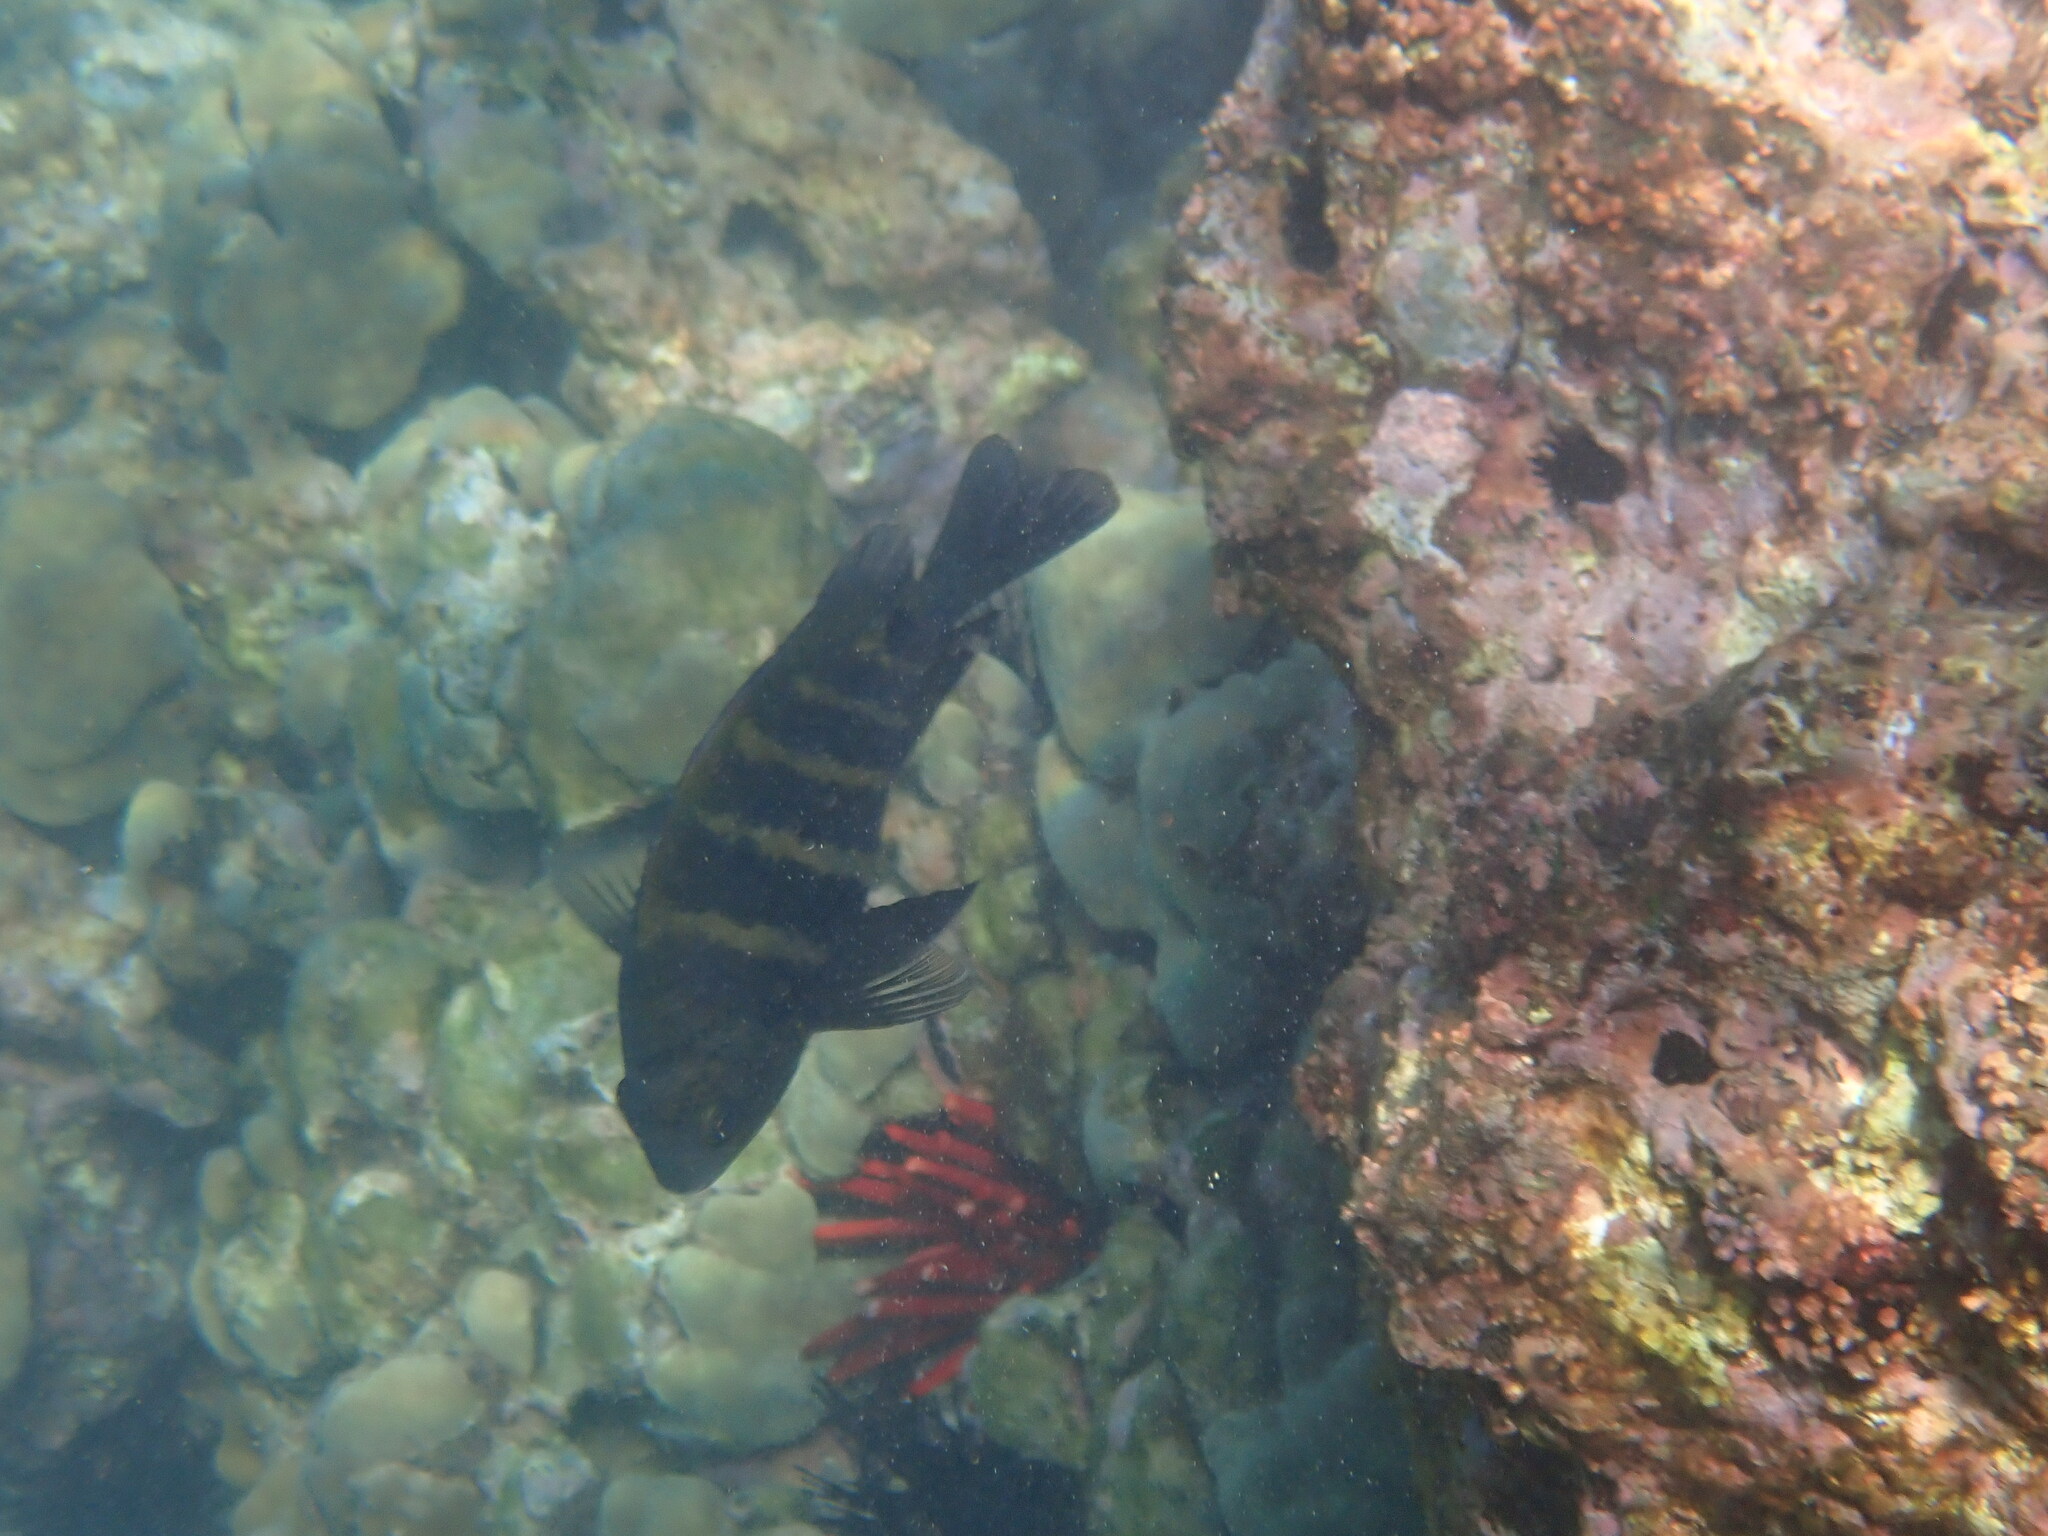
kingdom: Animalia
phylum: Chordata
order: Perciformes
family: Pomacentridae
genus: Abudefduf
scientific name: Abudefduf sordidus
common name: Blackspot sergeant
